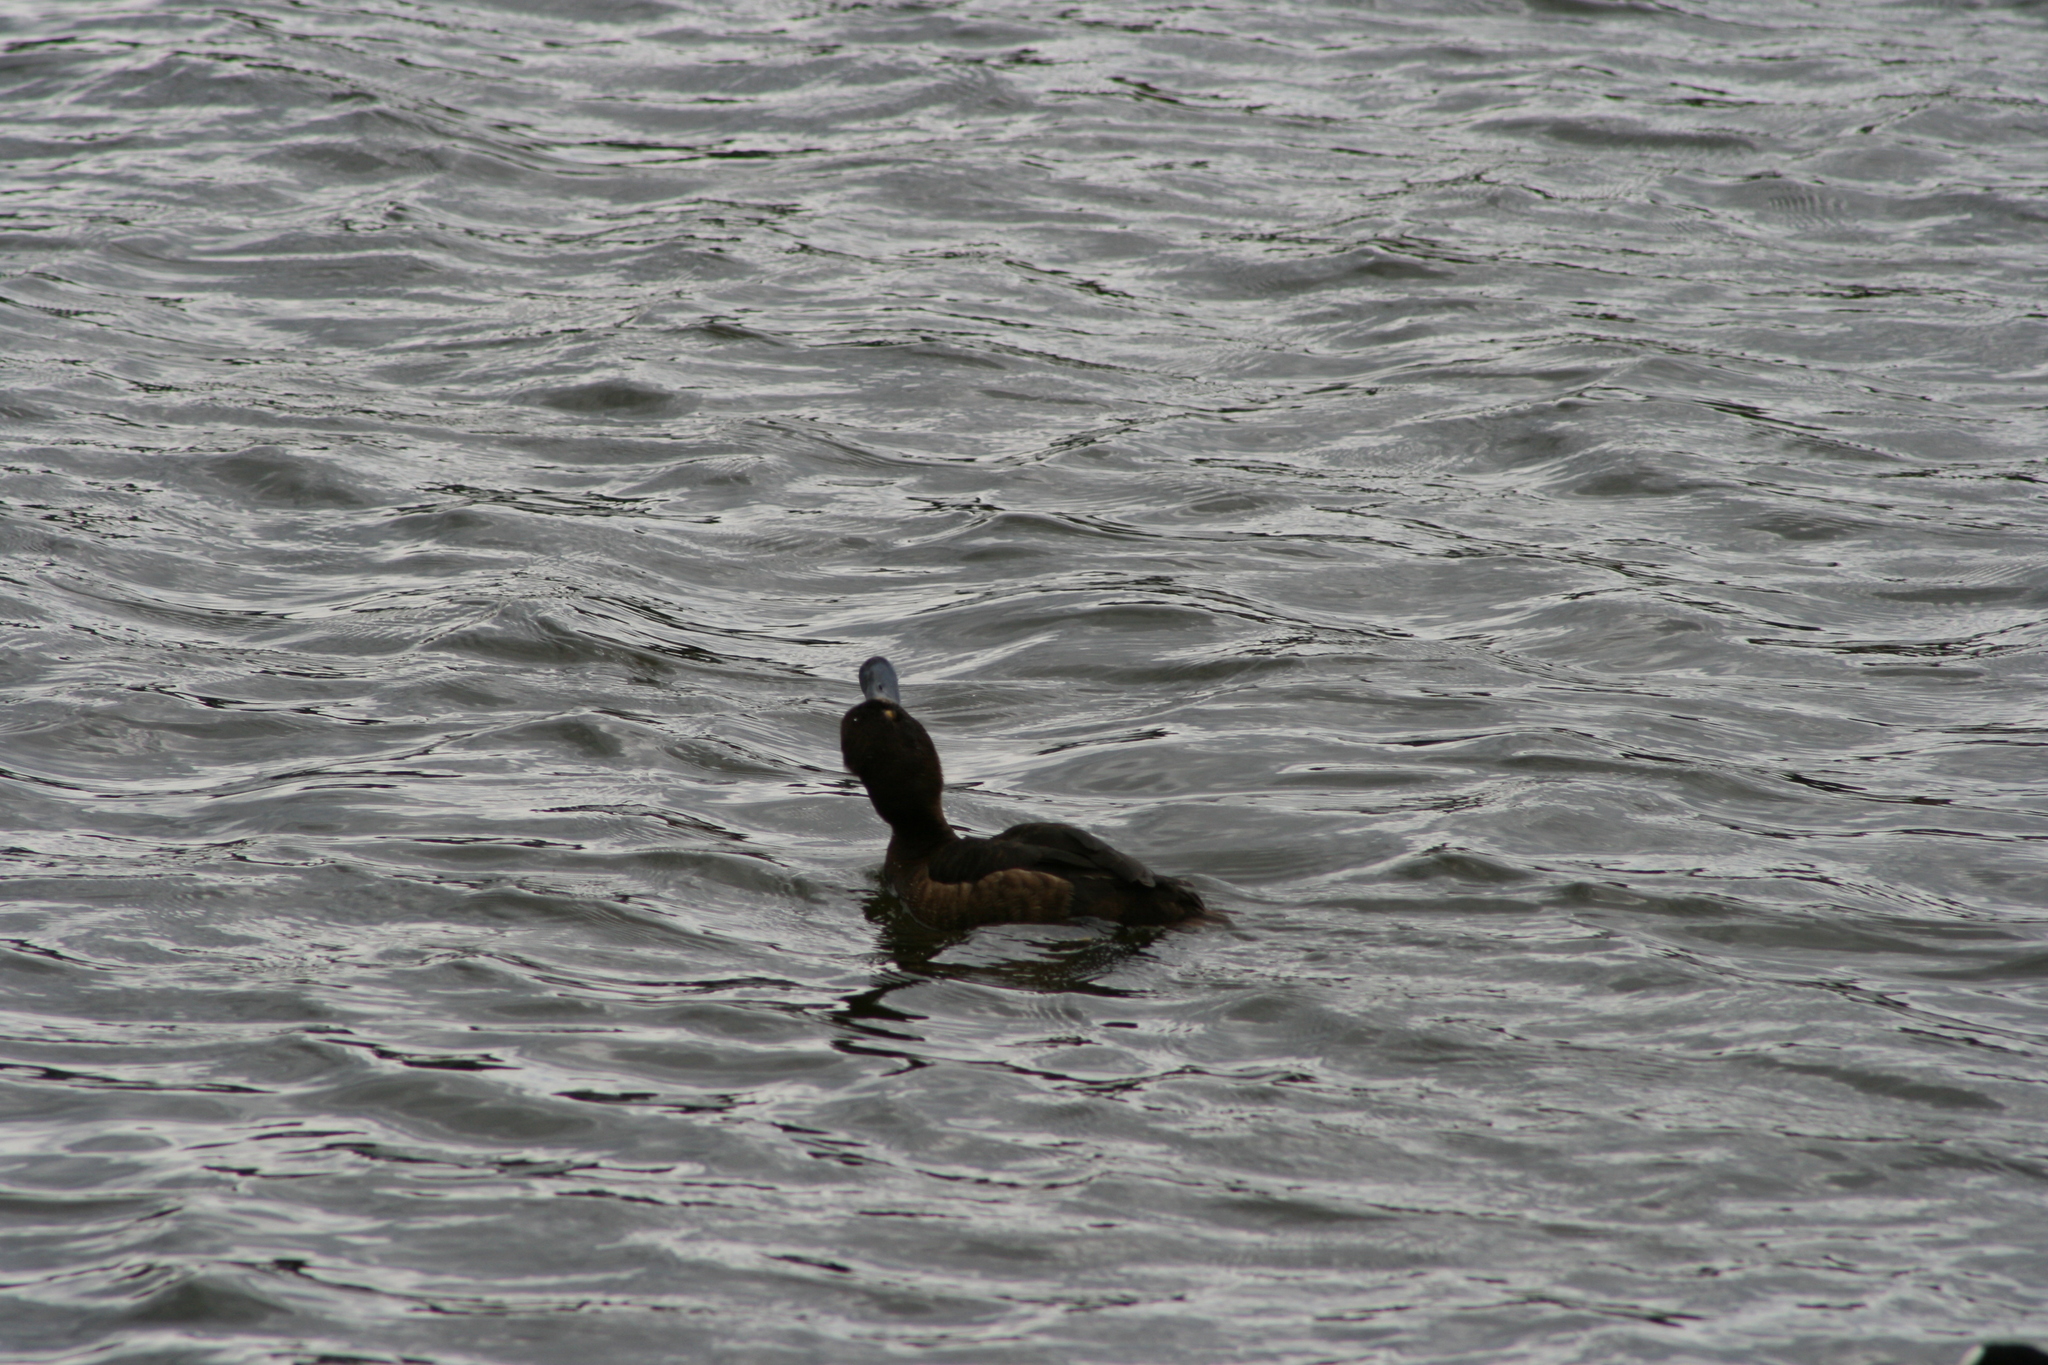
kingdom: Animalia
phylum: Chordata
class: Aves
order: Anseriformes
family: Anatidae
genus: Aythya
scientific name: Aythya fuligula
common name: Tufted duck
